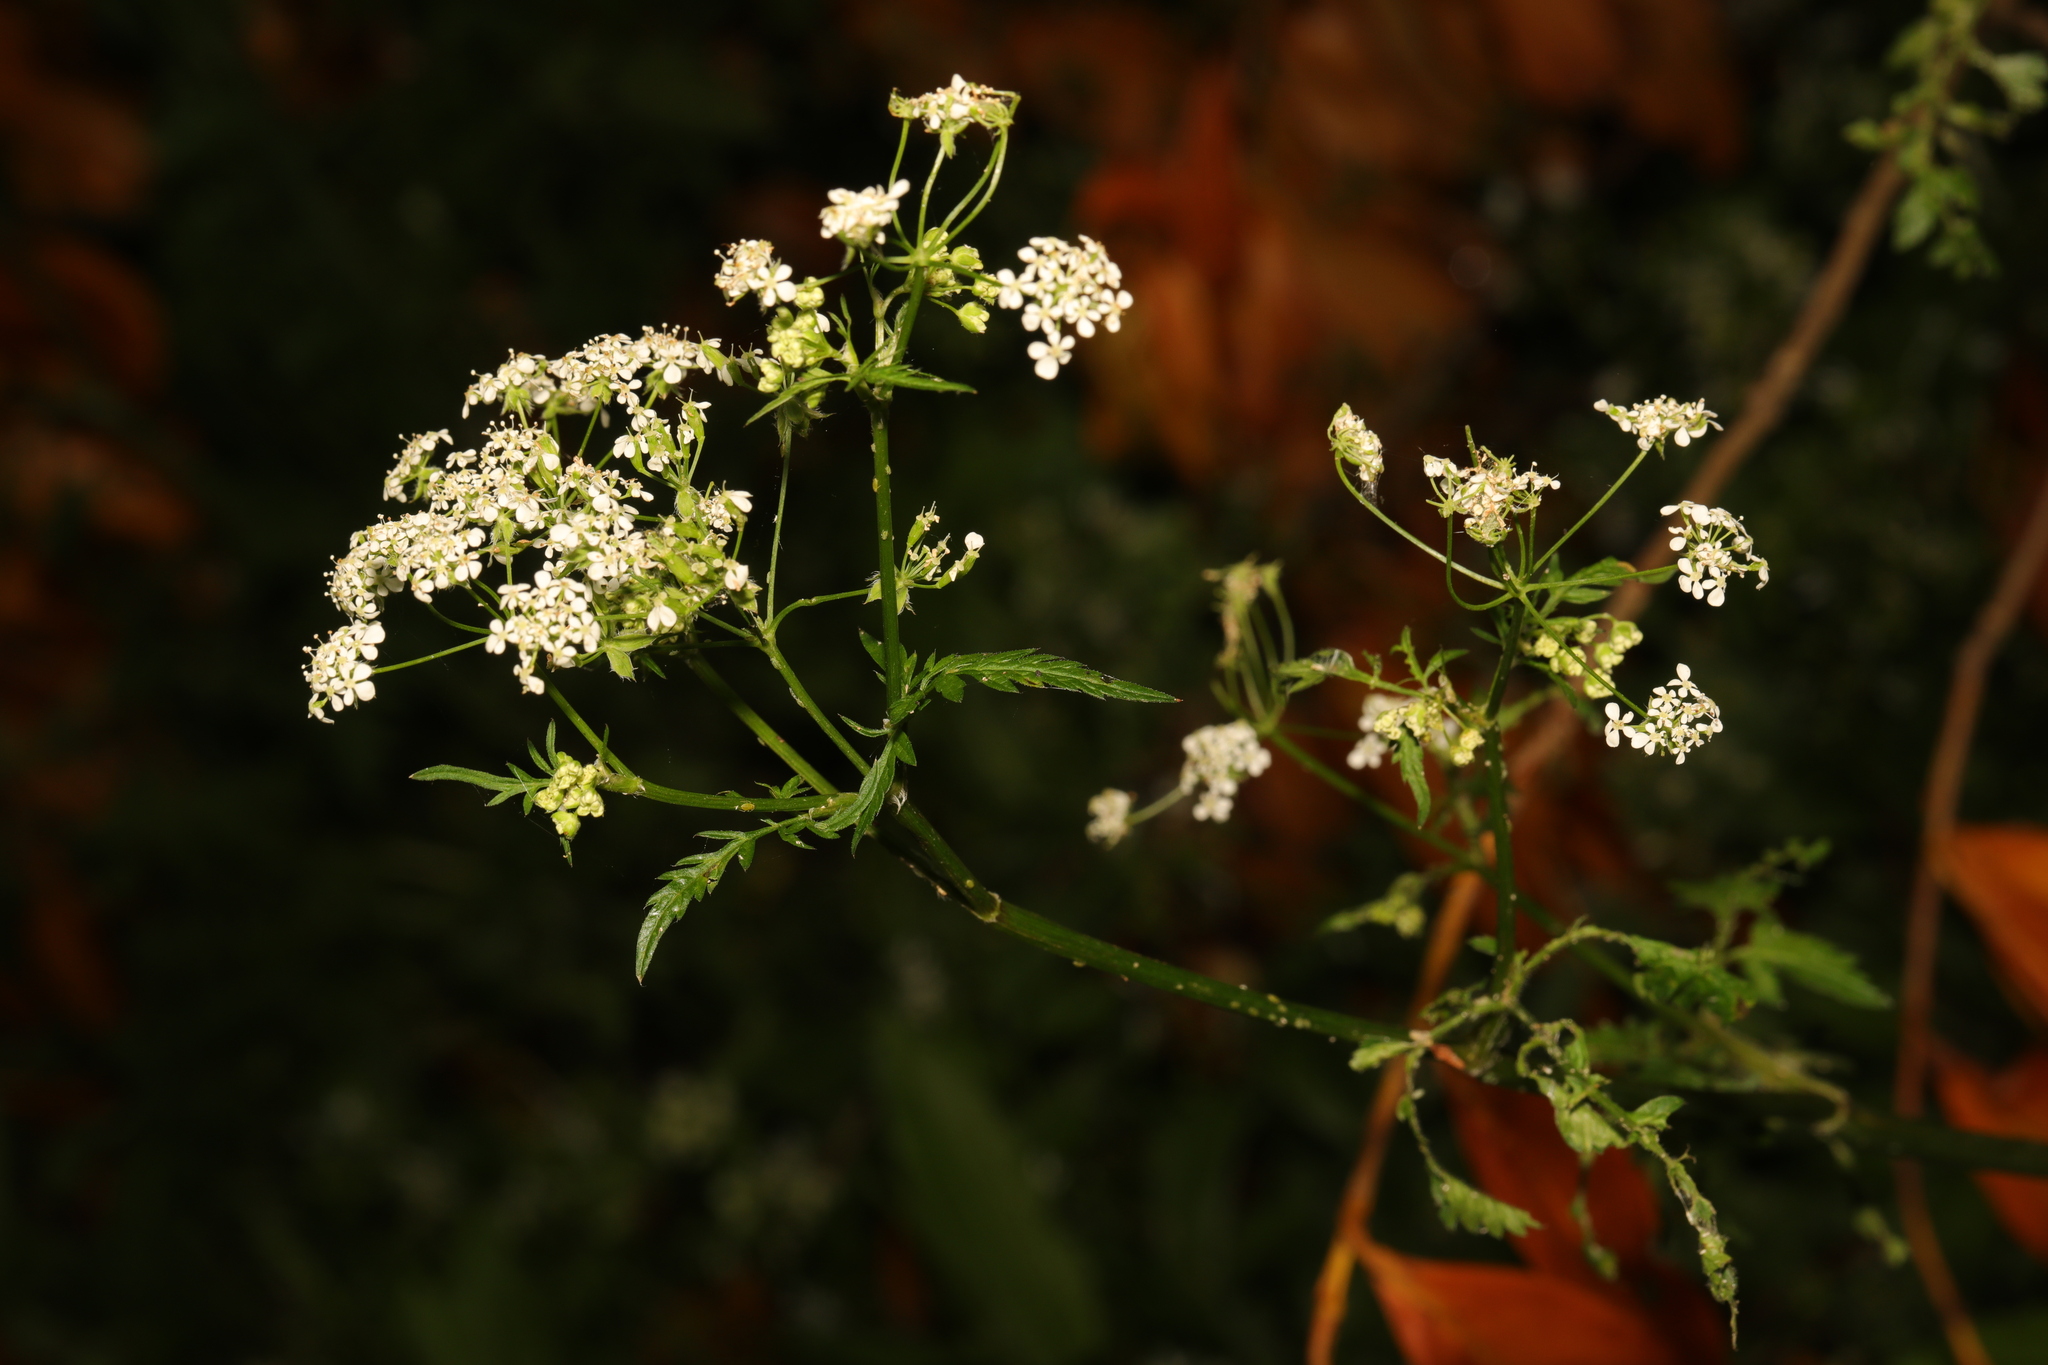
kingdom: Plantae
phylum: Tracheophyta
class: Magnoliopsida
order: Apiales
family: Apiaceae
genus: Anthriscus
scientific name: Anthriscus sylvestris
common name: Cow parsley
